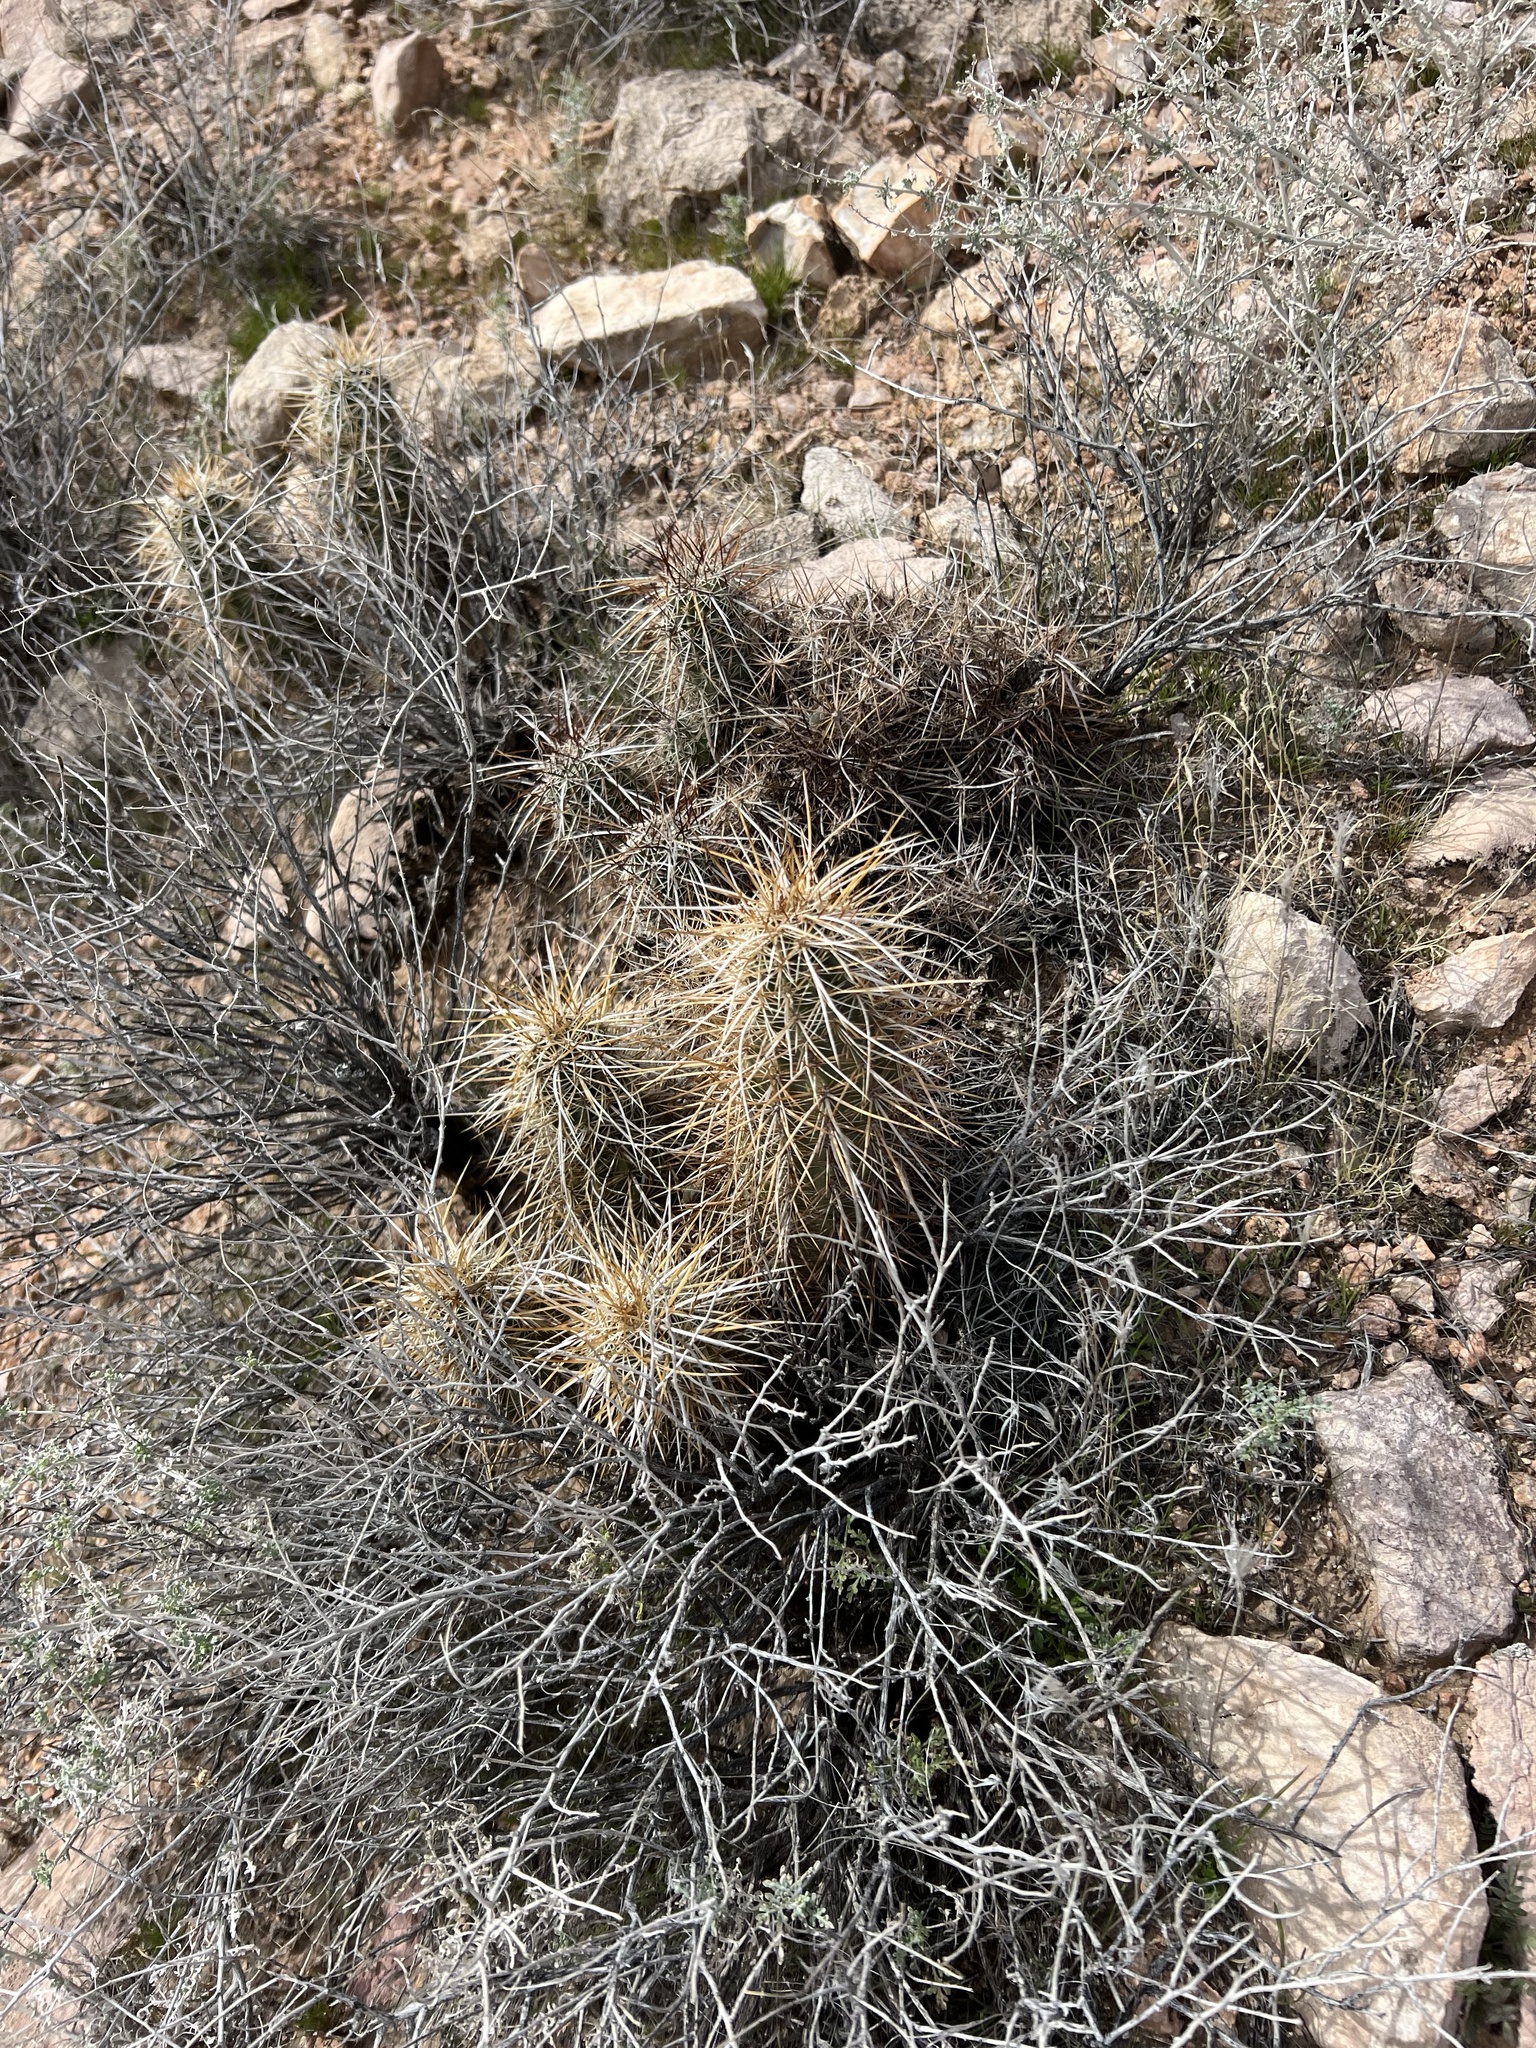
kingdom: Plantae
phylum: Tracheophyta
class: Magnoliopsida
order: Caryophyllales
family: Cactaceae
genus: Echinocereus
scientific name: Echinocereus engelmannii
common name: Engelmann's hedgehog cactus
